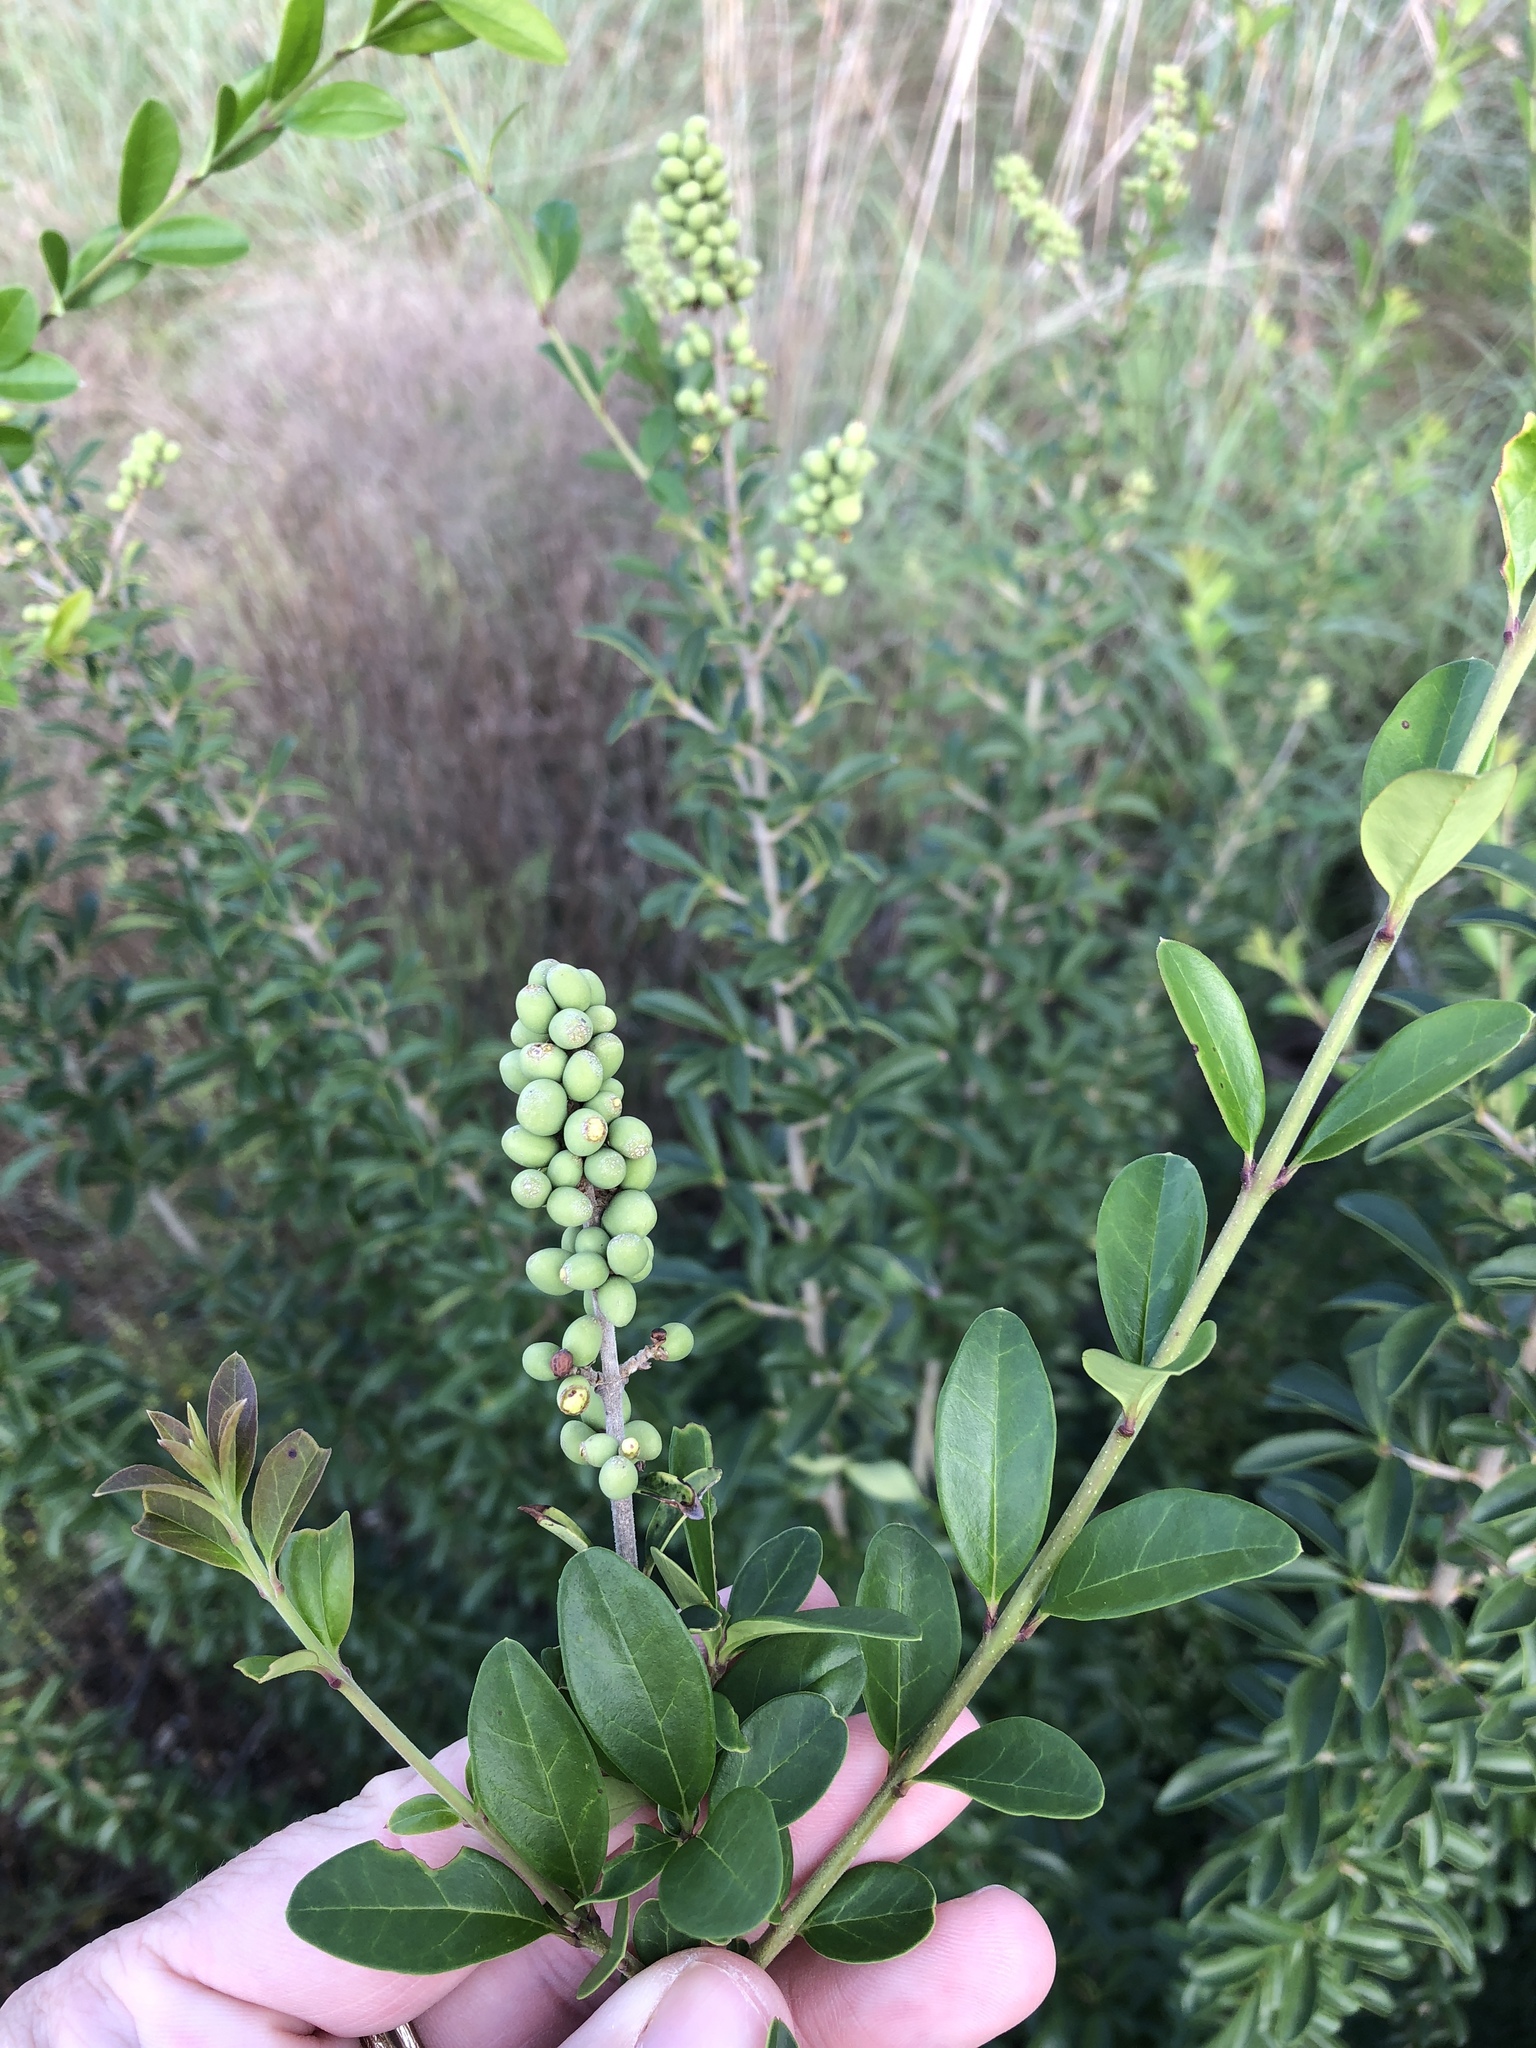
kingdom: Plantae
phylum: Tracheophyta
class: Magnoliopsida
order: Lamiales
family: Oleaceae
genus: Ligustrum
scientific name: Ligustrum quihoui
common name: Waxyleaf privet
